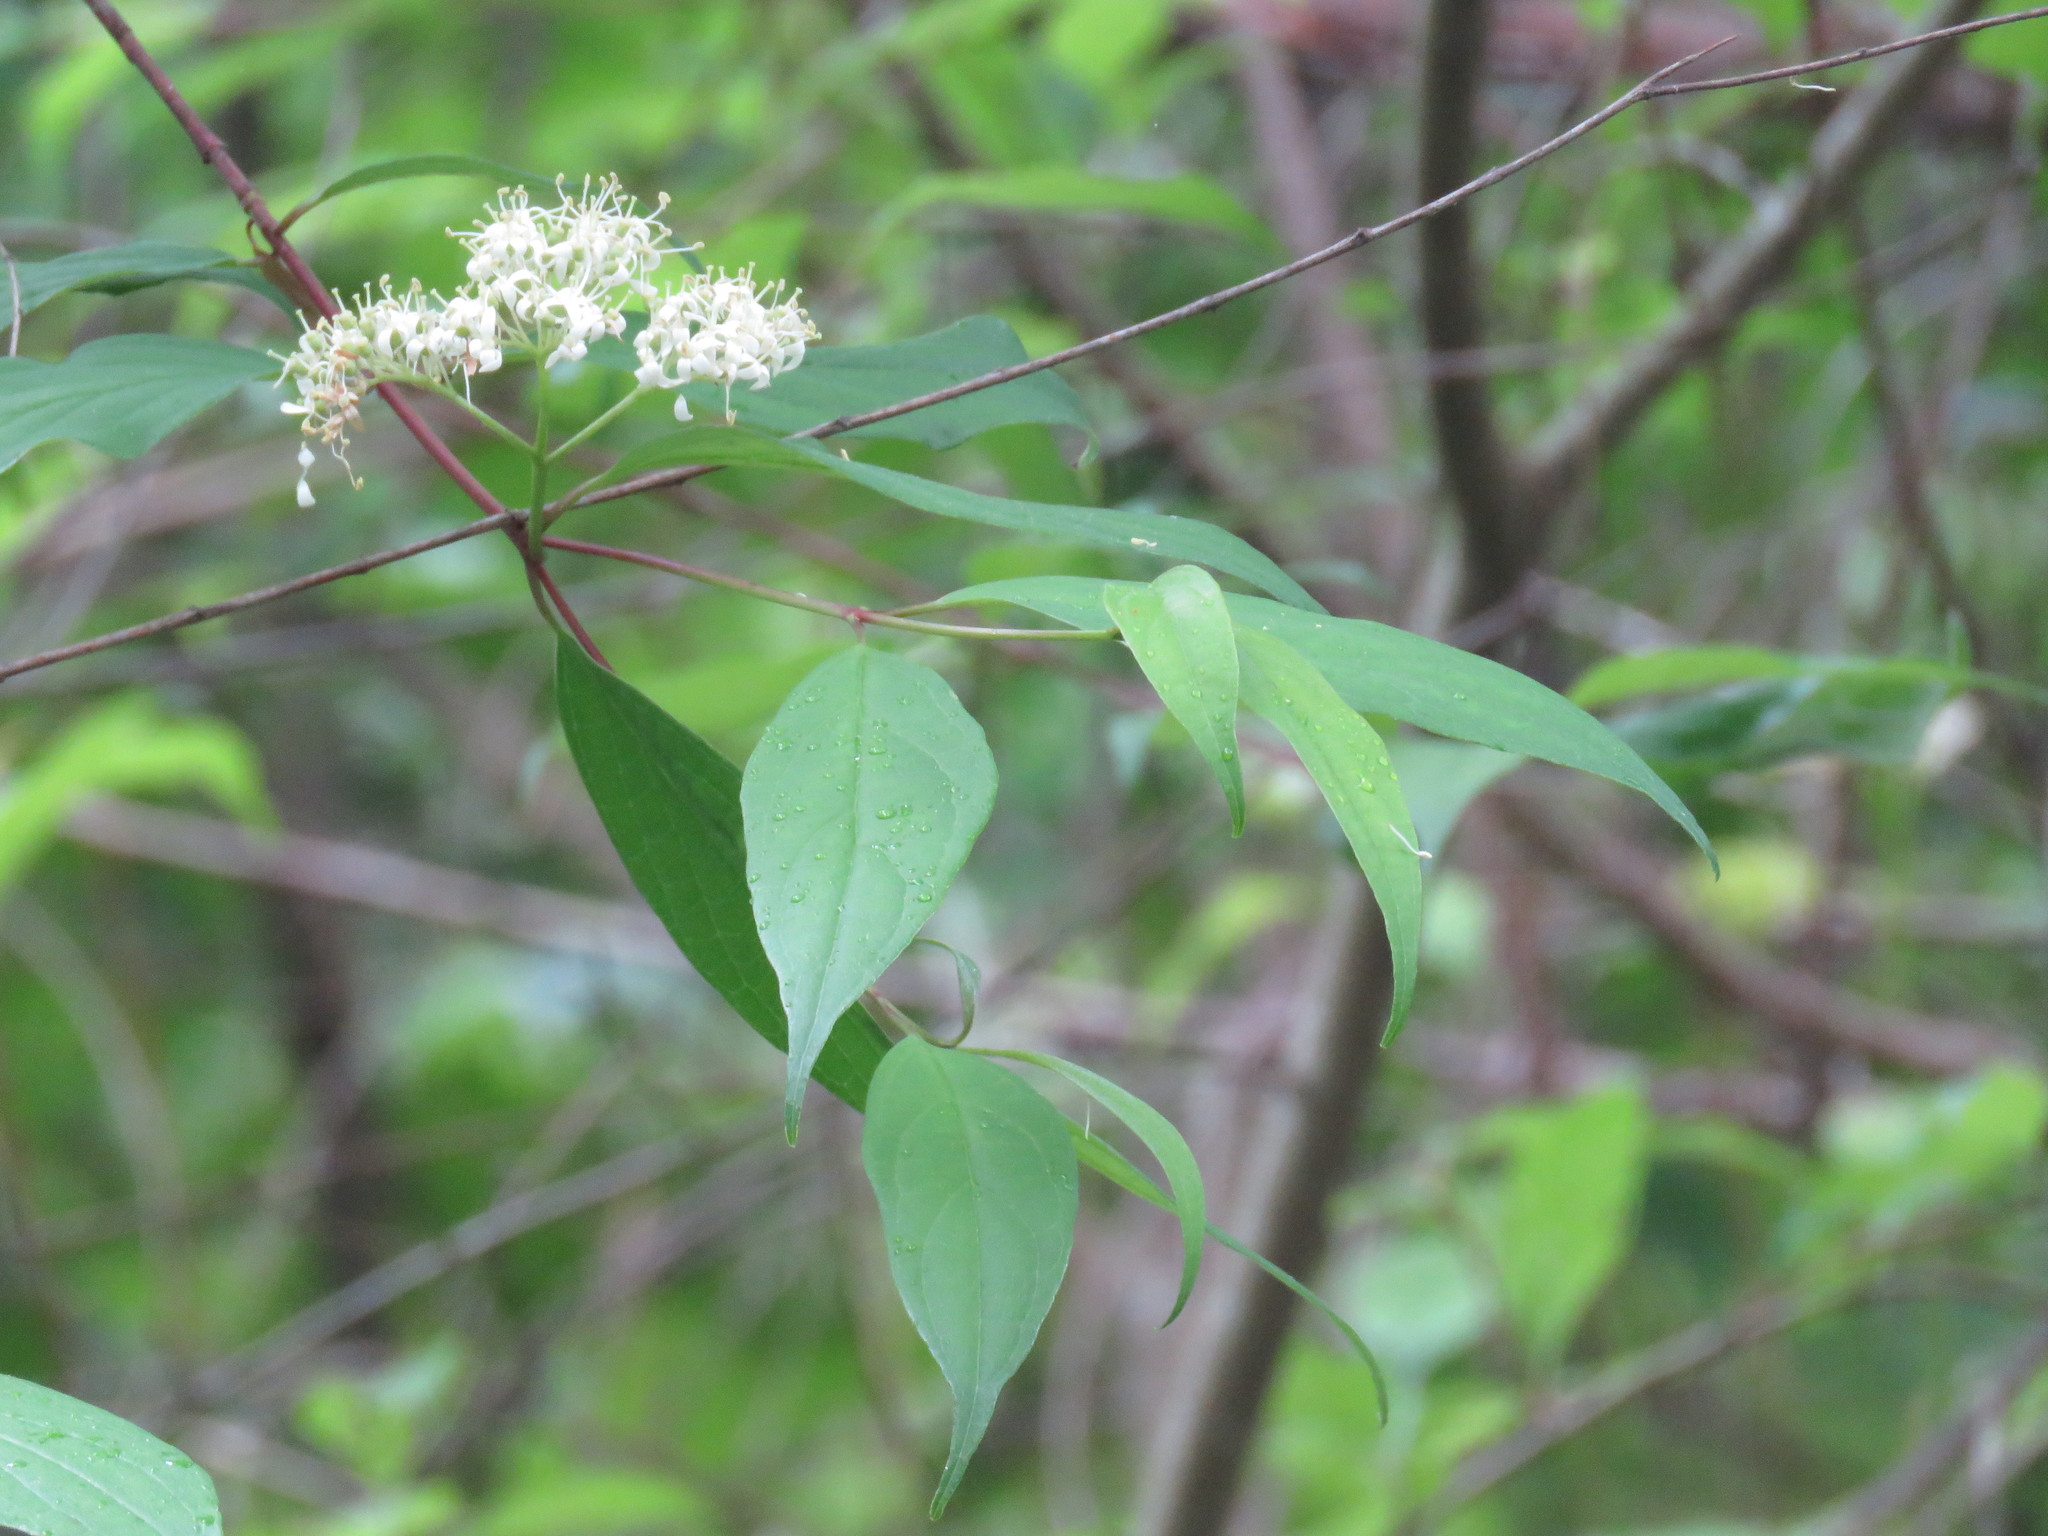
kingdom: Plantae
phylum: Tracheophyta
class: Magnoliopsida
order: Cornales
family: Cornaceae
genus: Cornus
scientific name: Cornus foemina
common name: Swamp dogwood
